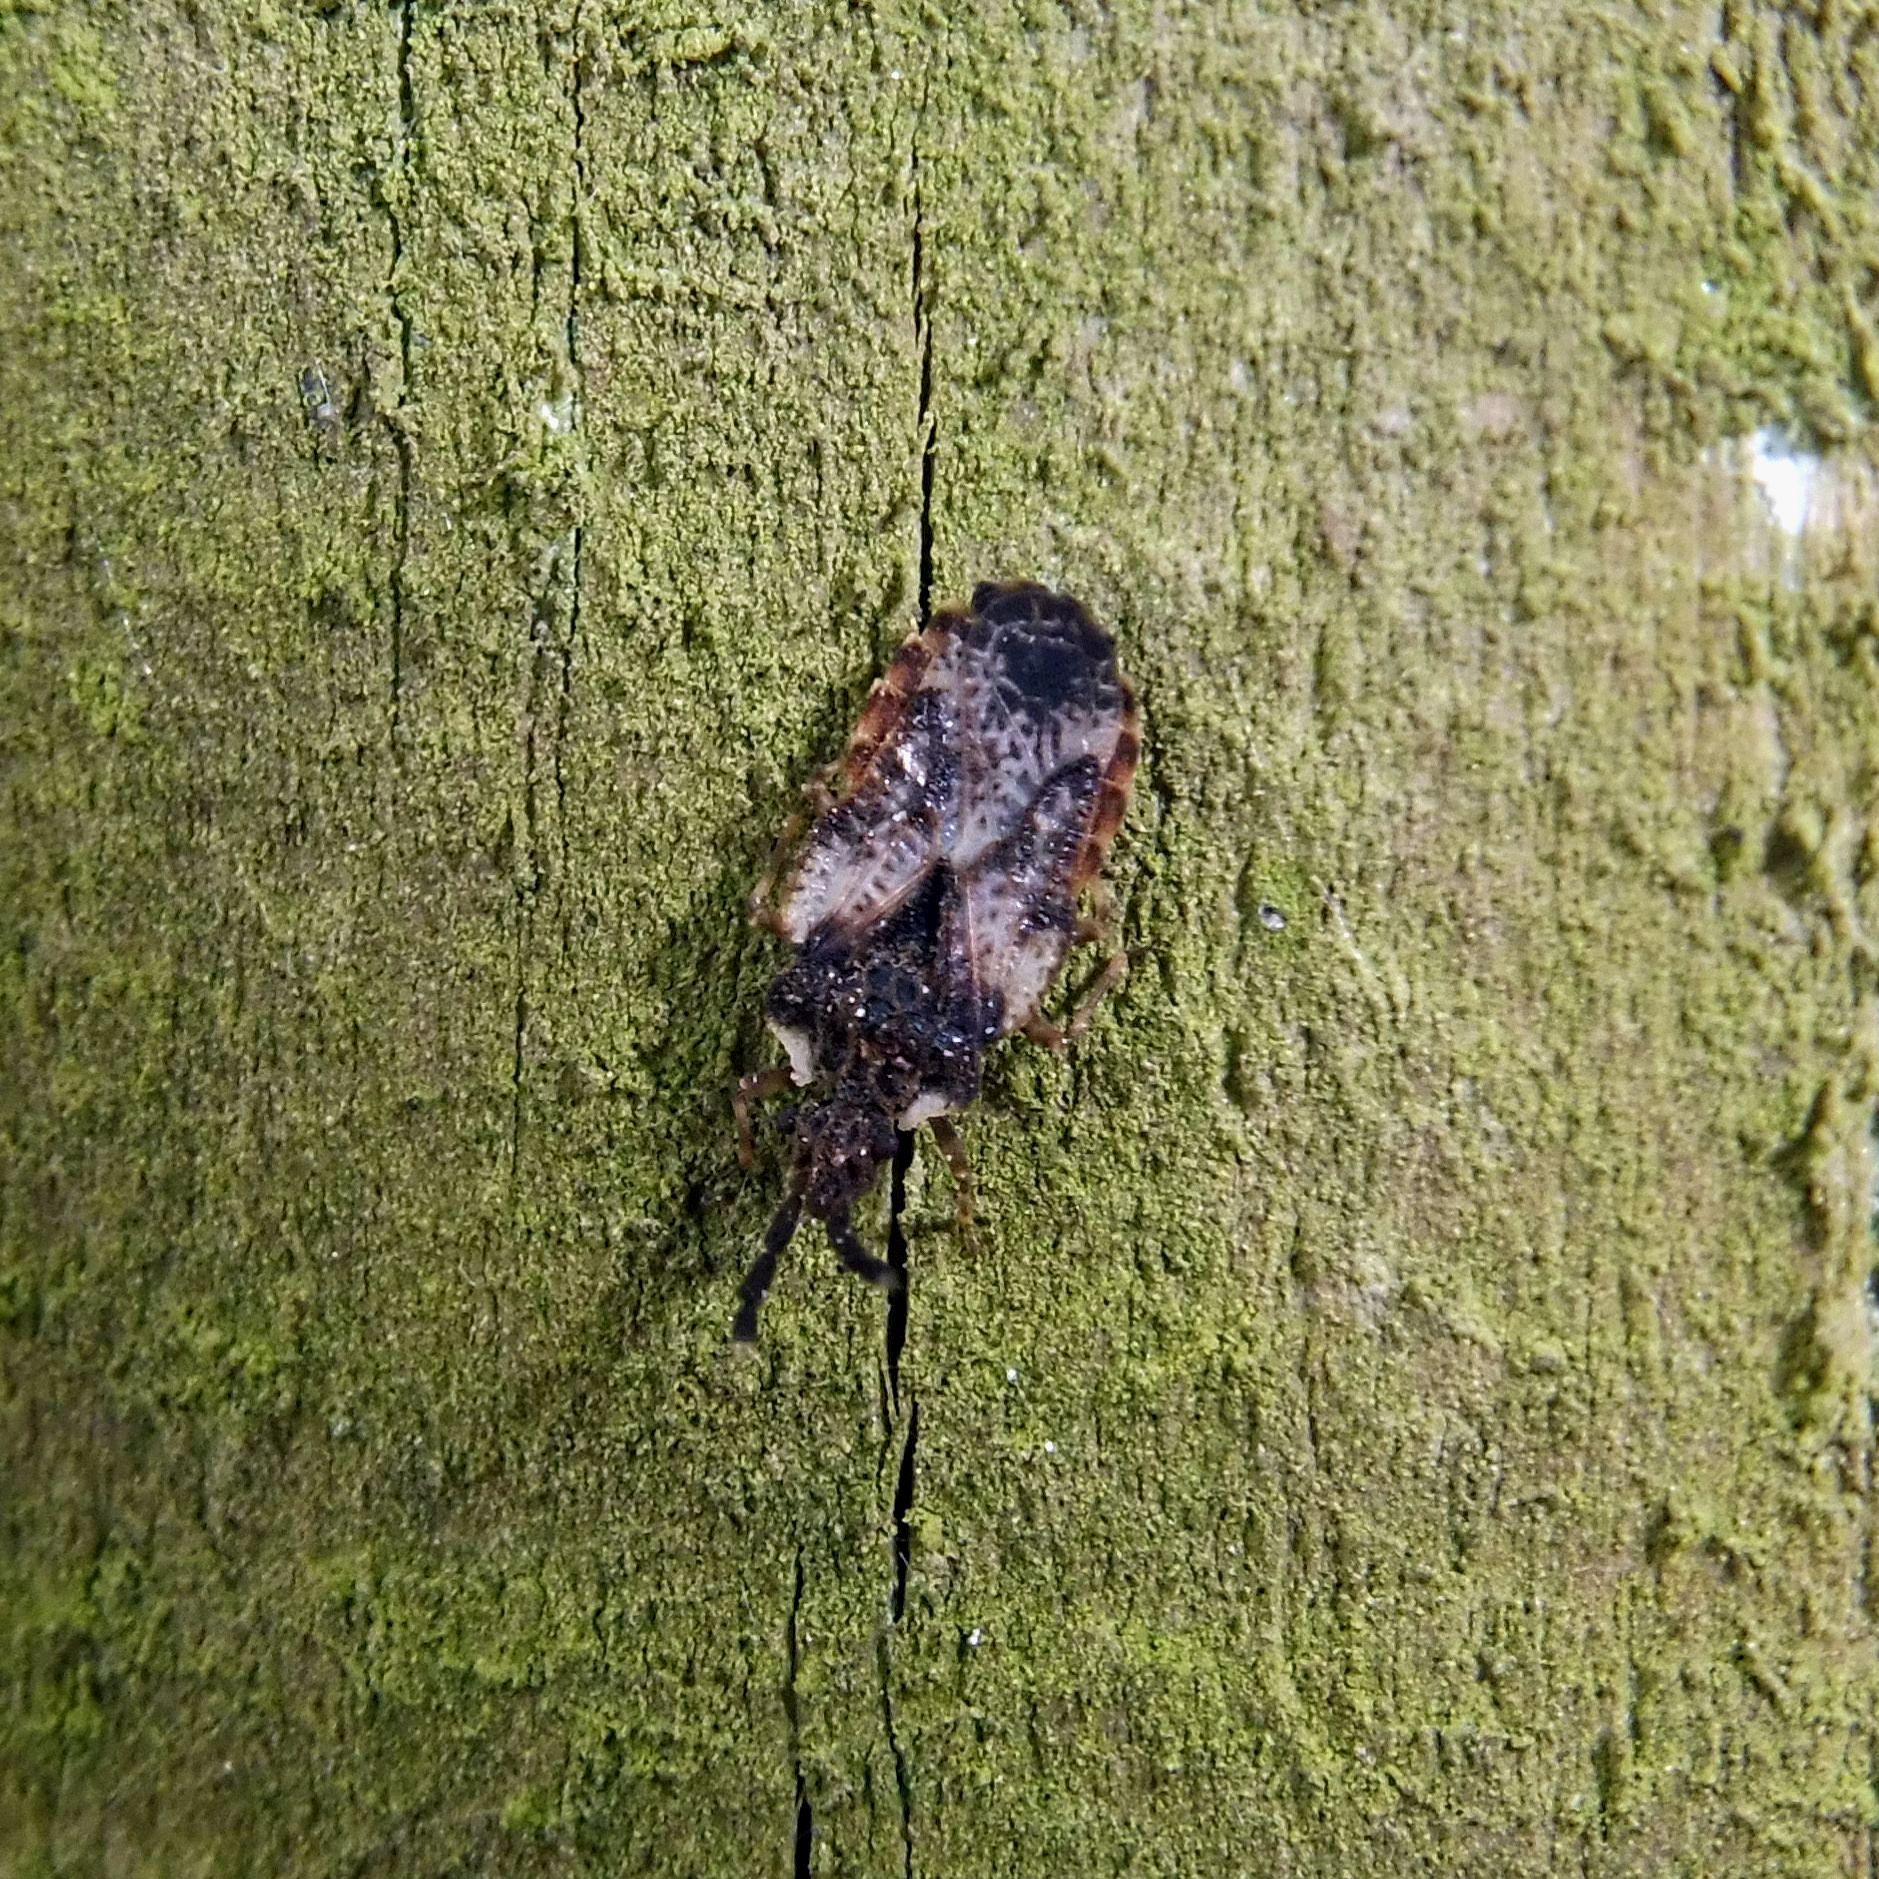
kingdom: Animalia
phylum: Arthropoda
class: Insecta
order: Hemiptera
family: Aradidae
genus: Aradus
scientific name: Aradus depressus
